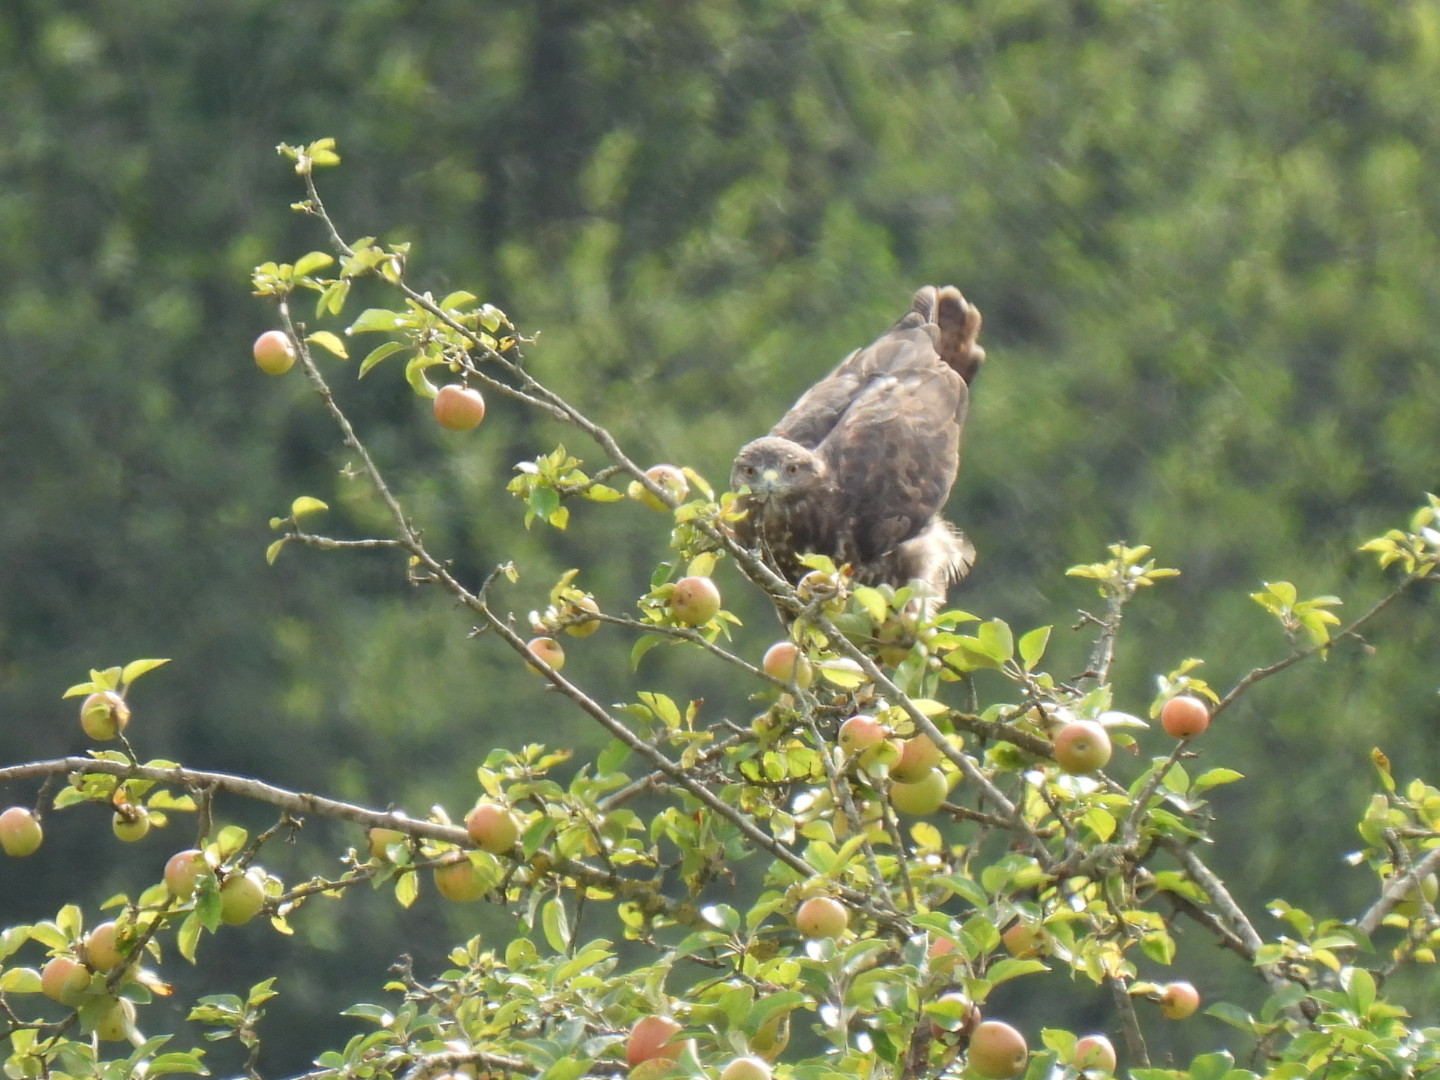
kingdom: Animalia
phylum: Chordata
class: Aves
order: Accipitriformes
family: Accipitridae
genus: Buteo
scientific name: Buteo buteo
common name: Common buzzard
